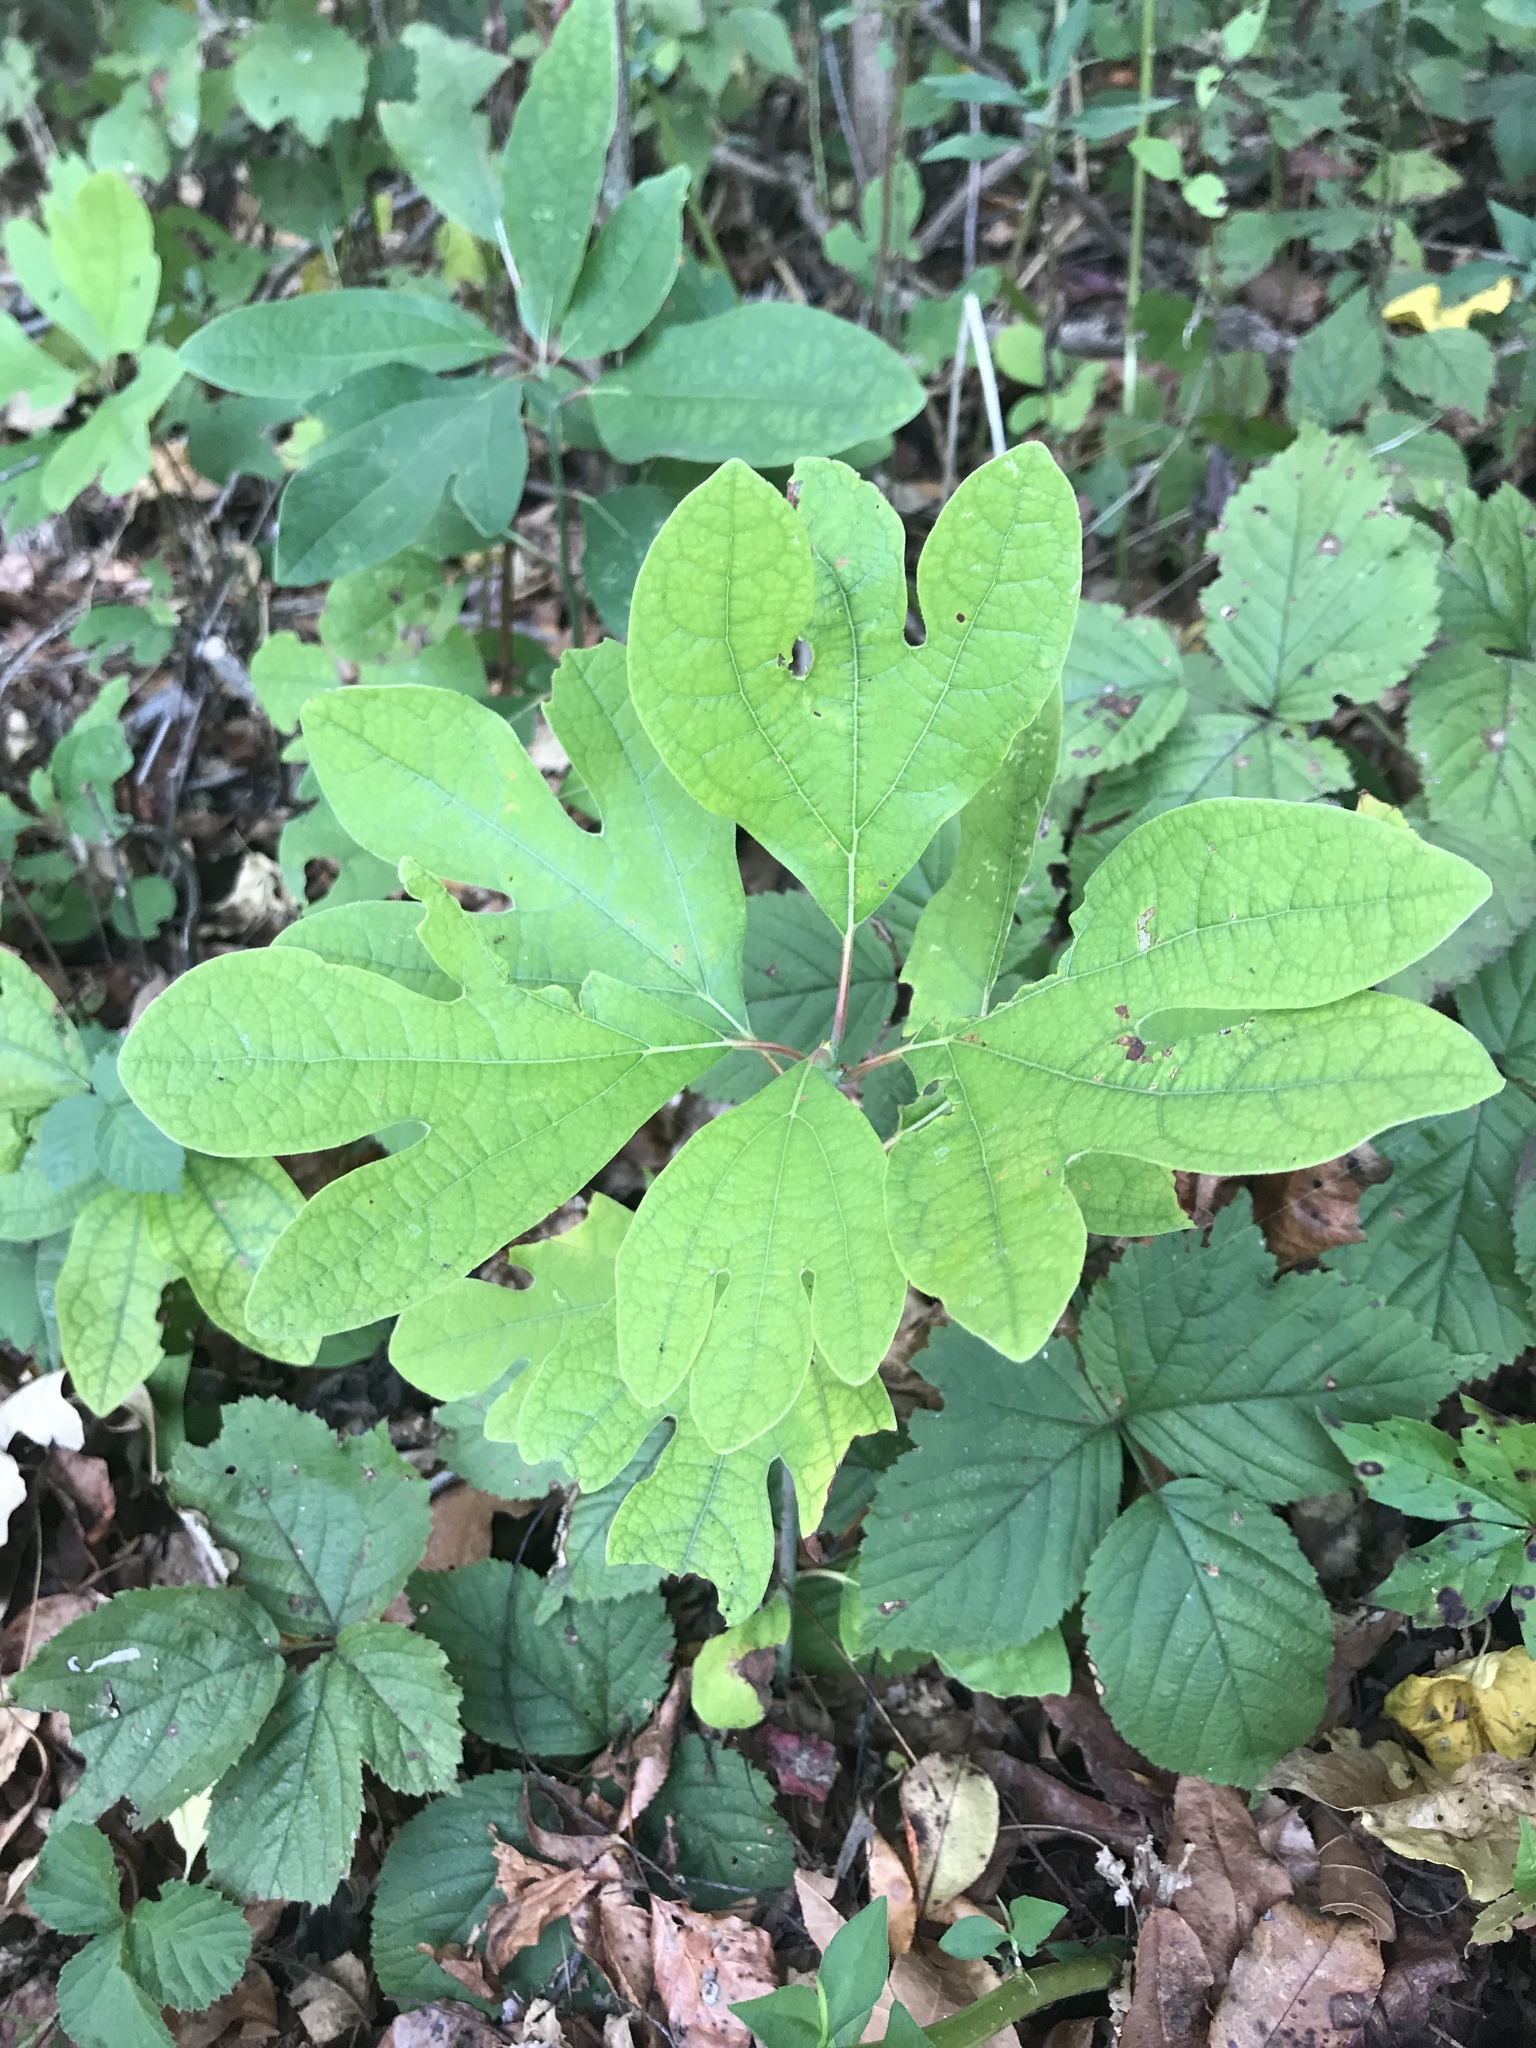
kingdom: Plantae
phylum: Tracheophyta
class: Magnoliopsida
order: Laurales
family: Lauraceae
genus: Sassafras
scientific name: Sassafras albidum
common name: Sassafras
